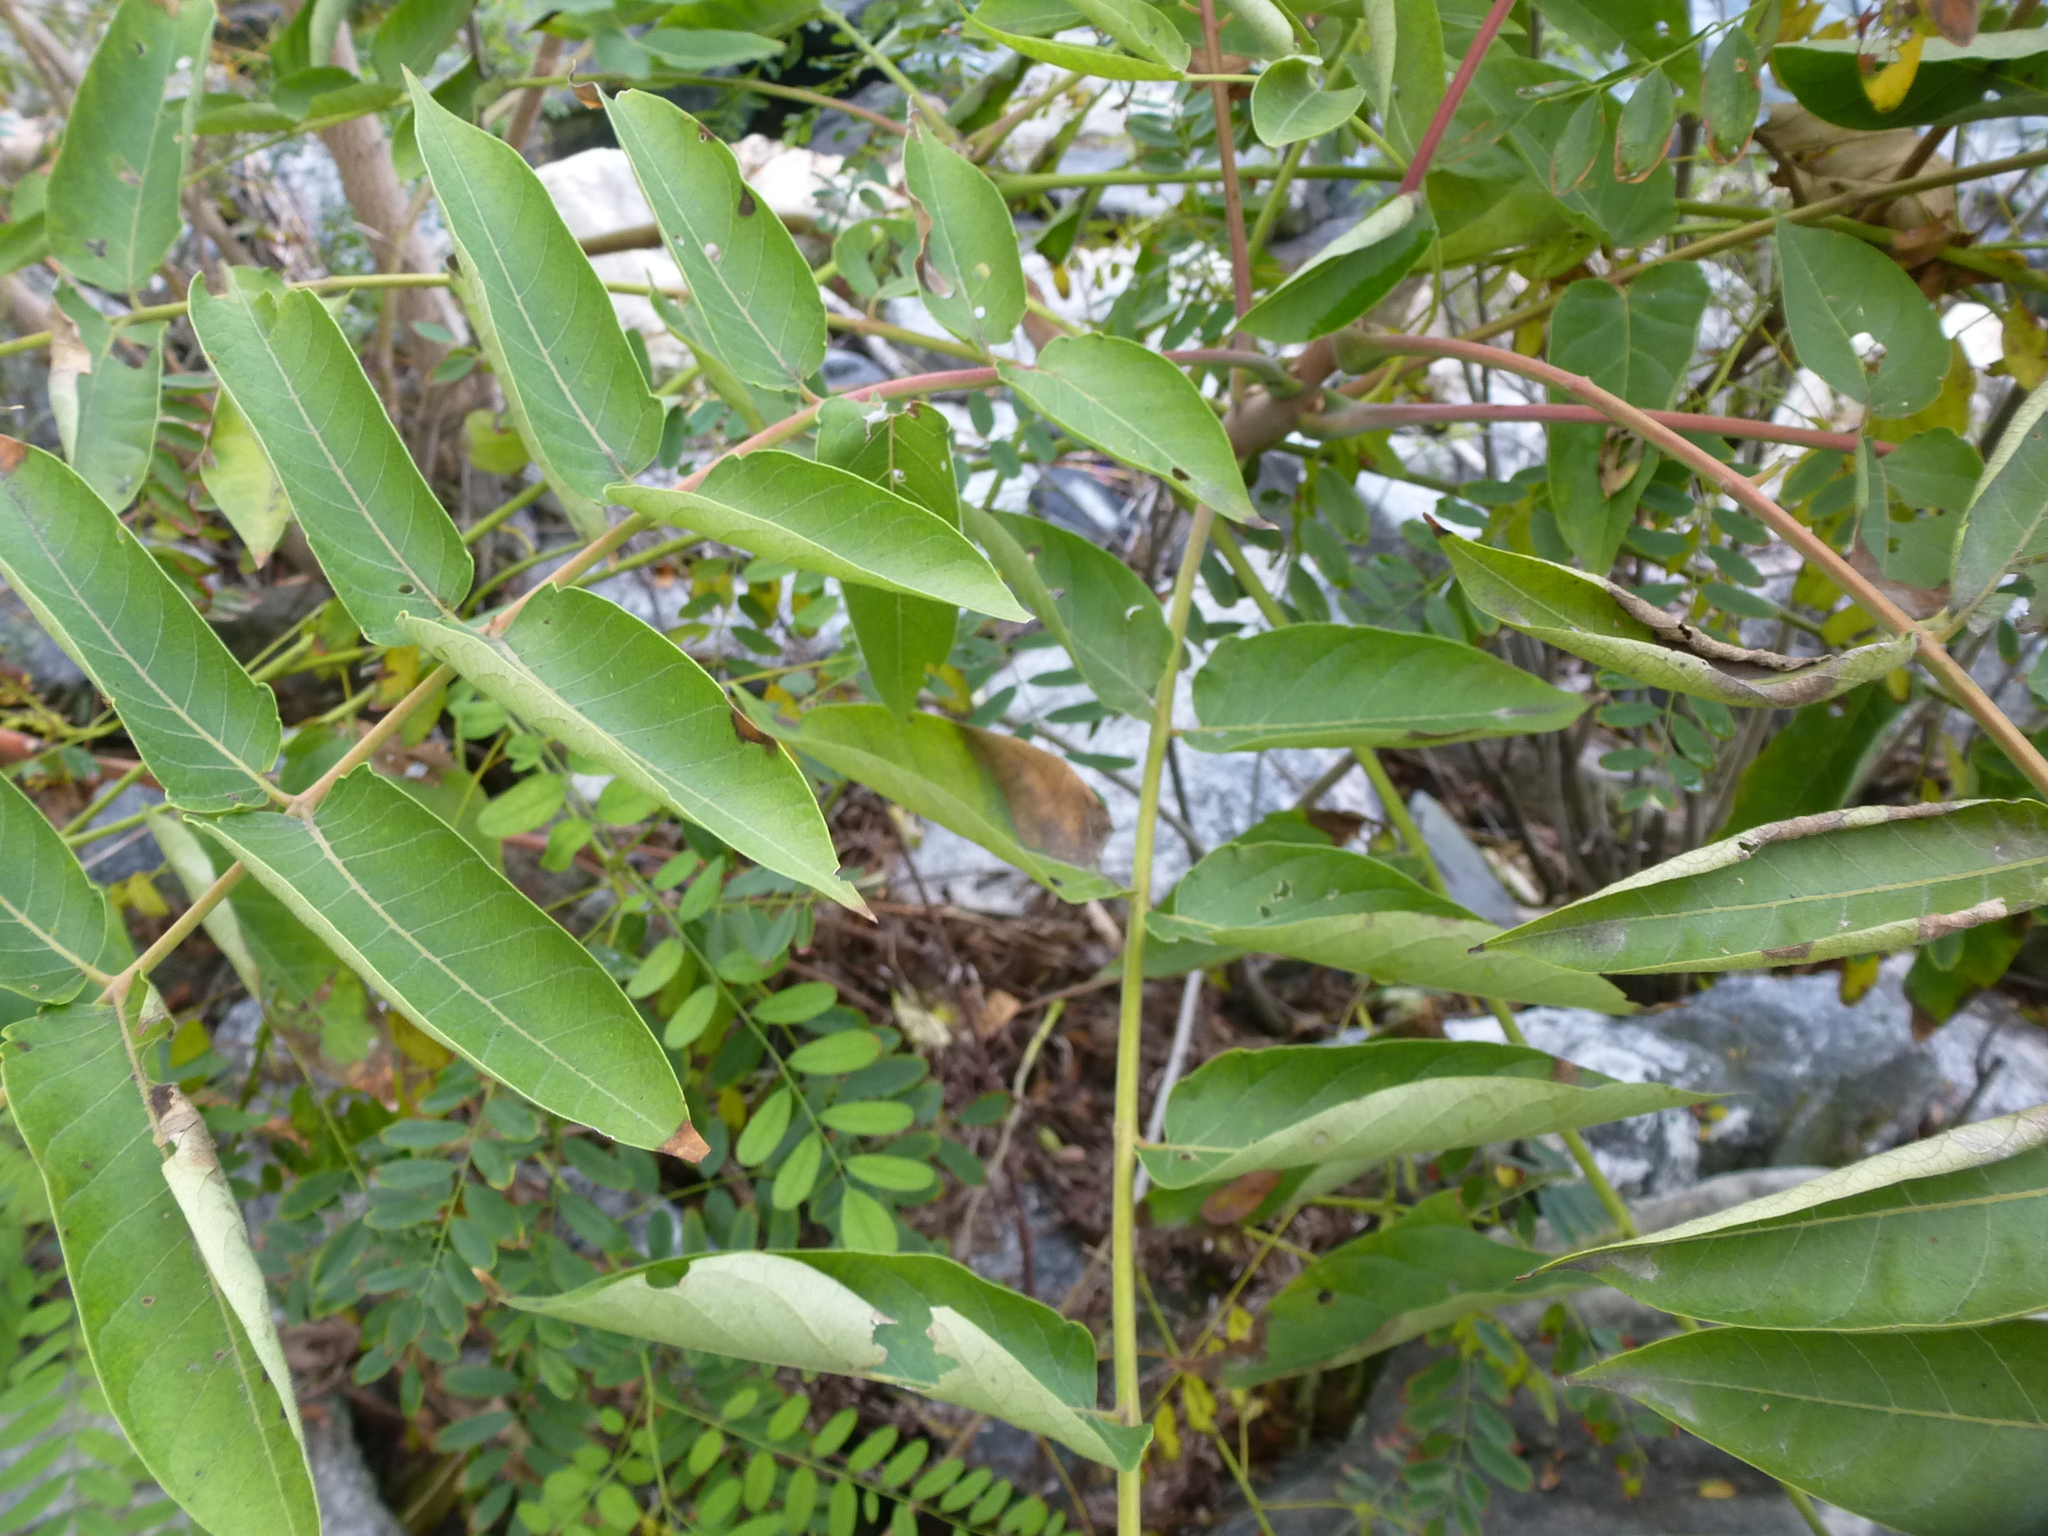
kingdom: Plantae
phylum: Tracheophyta
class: Magnoliopsida
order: Sapindales
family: Simaroubaceae
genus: Ailanthus
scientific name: Ailanthus altissima
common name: Tree-of-heaven
